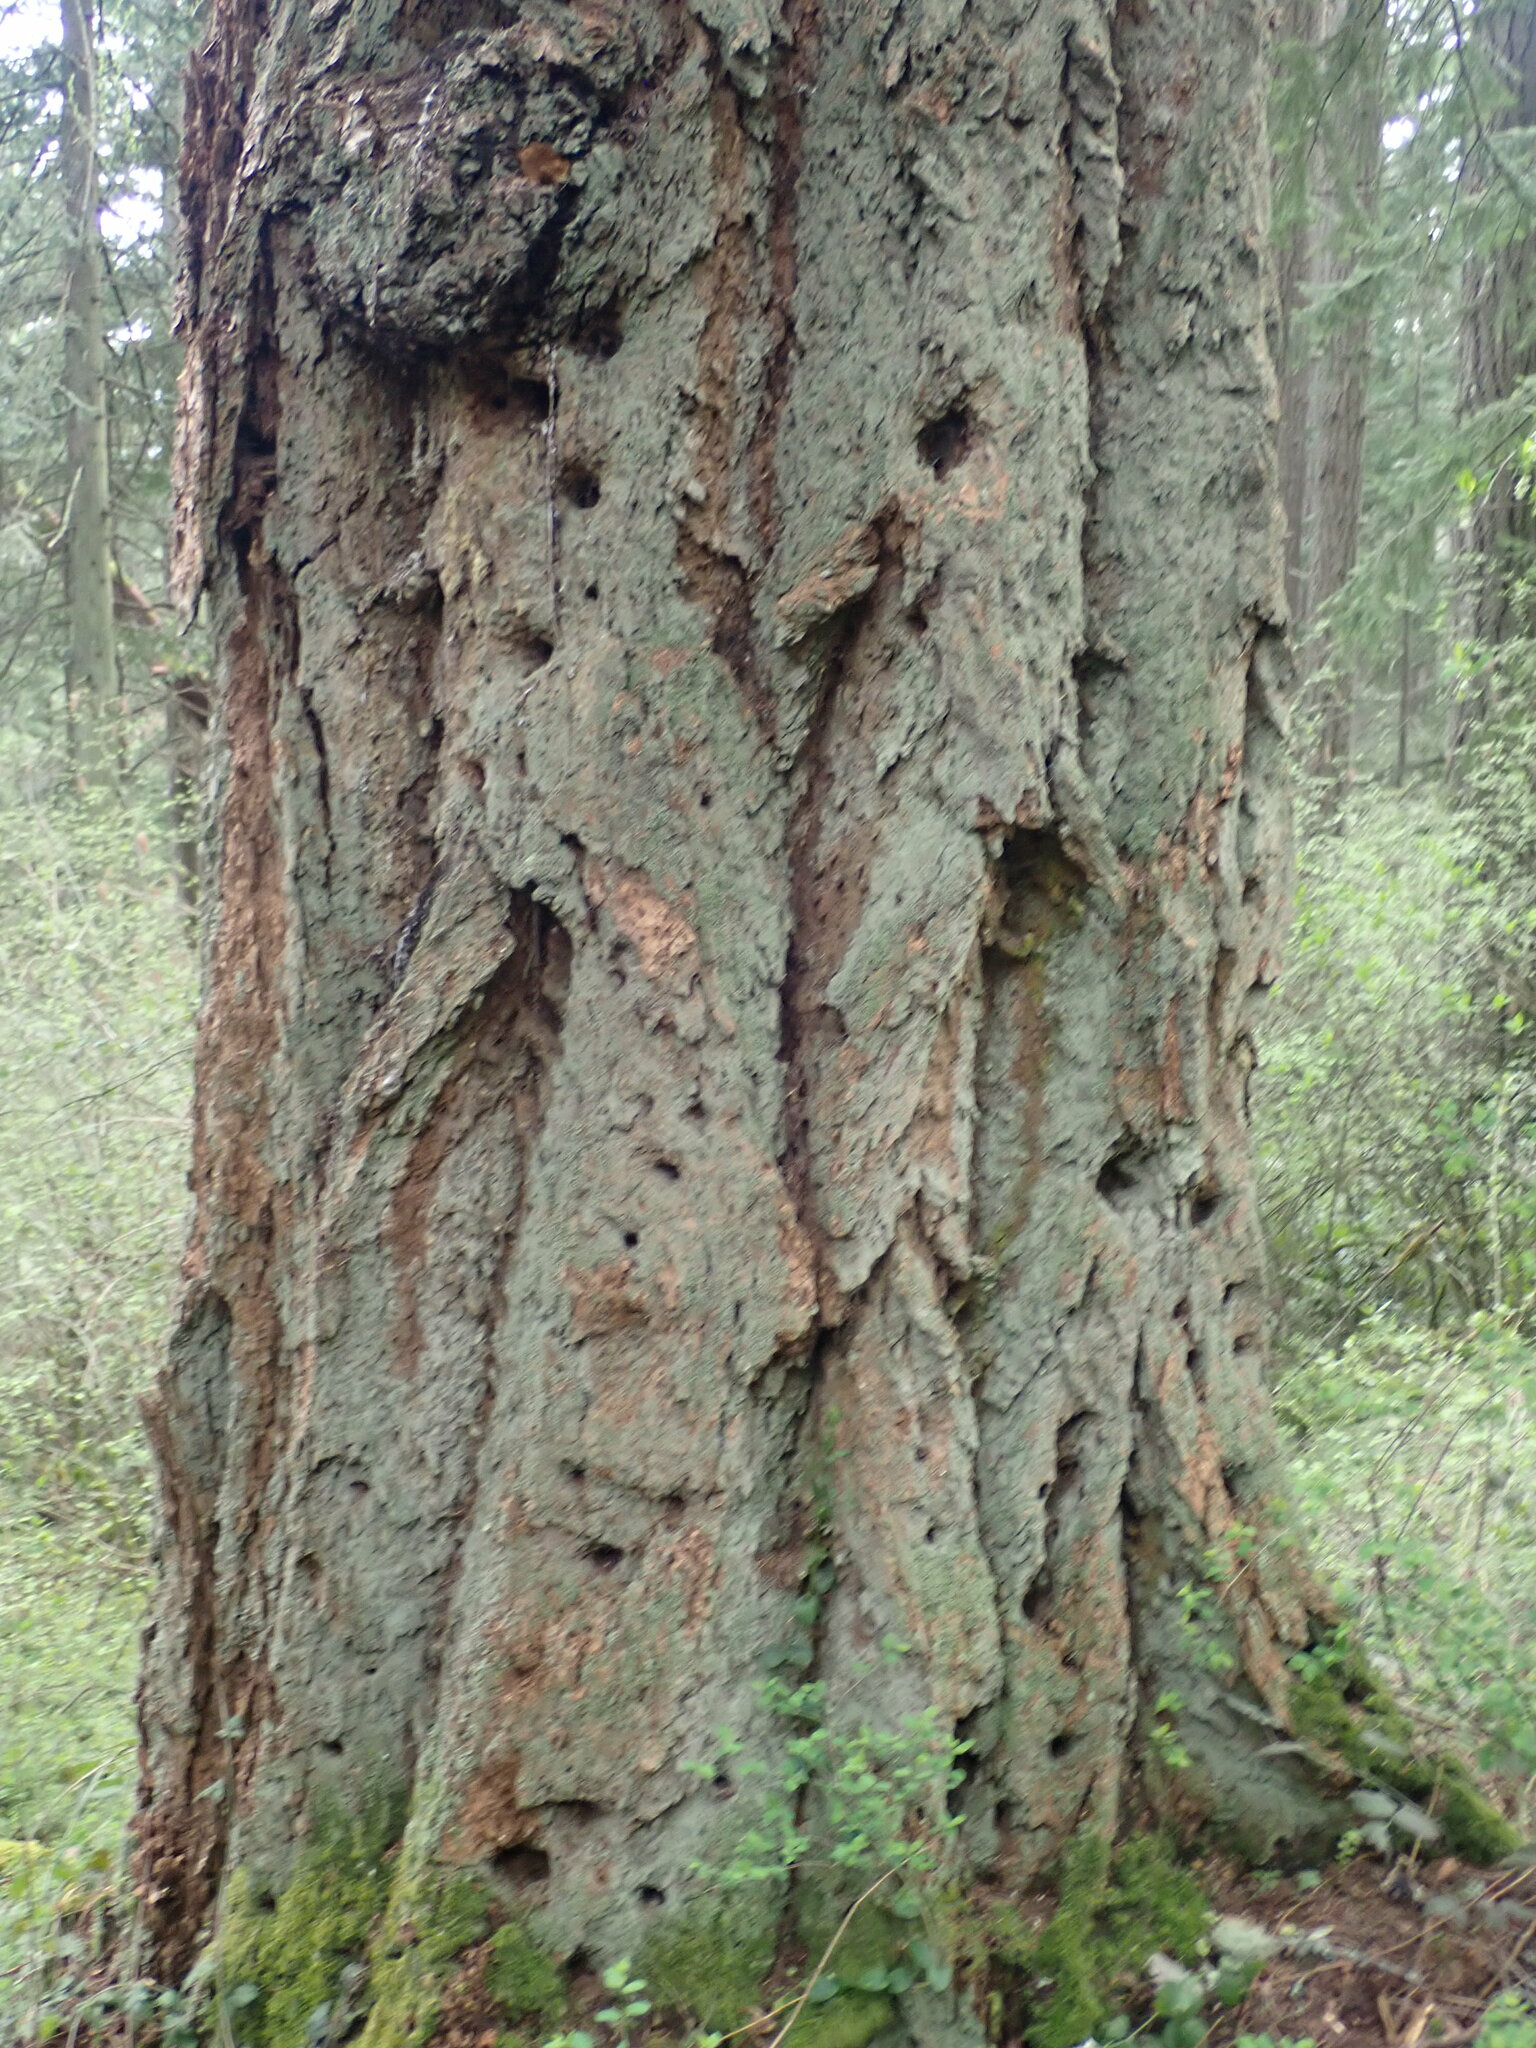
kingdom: Plantae
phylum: Tracheophyta
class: Pinopsida
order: Pinales
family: Pinaceae
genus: Pseudotsuga
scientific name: Pseudotsuga menziesii
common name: Douglas fir
